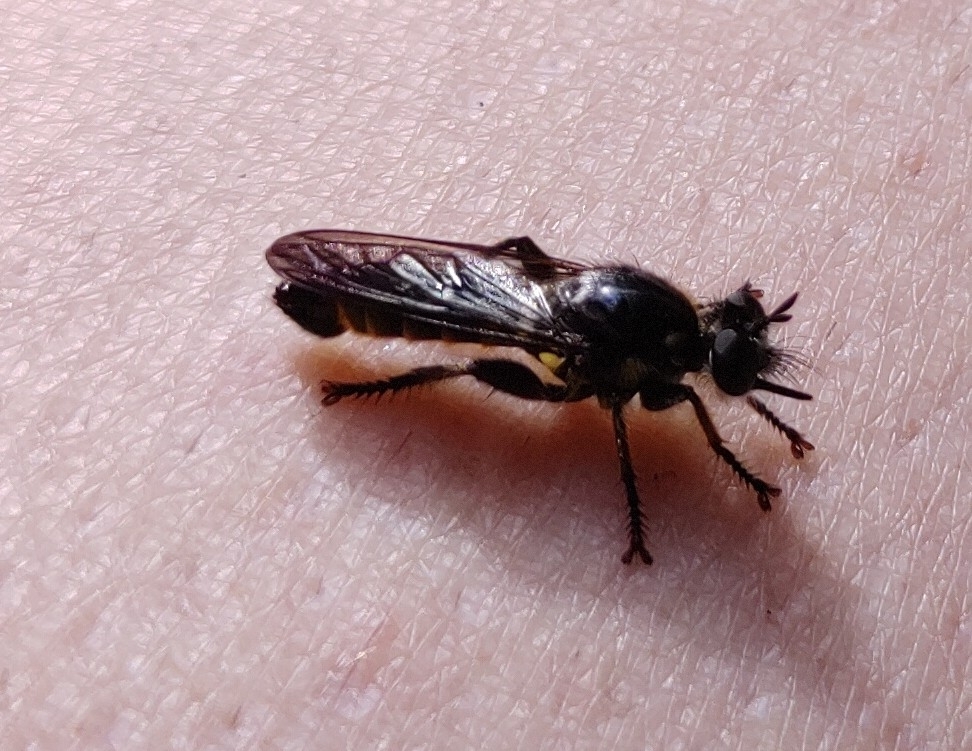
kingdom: Animalia
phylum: Arthropoda
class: Insecta
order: Diptera
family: Asilidae
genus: Lamyra
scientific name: Lamyra fimbriata
